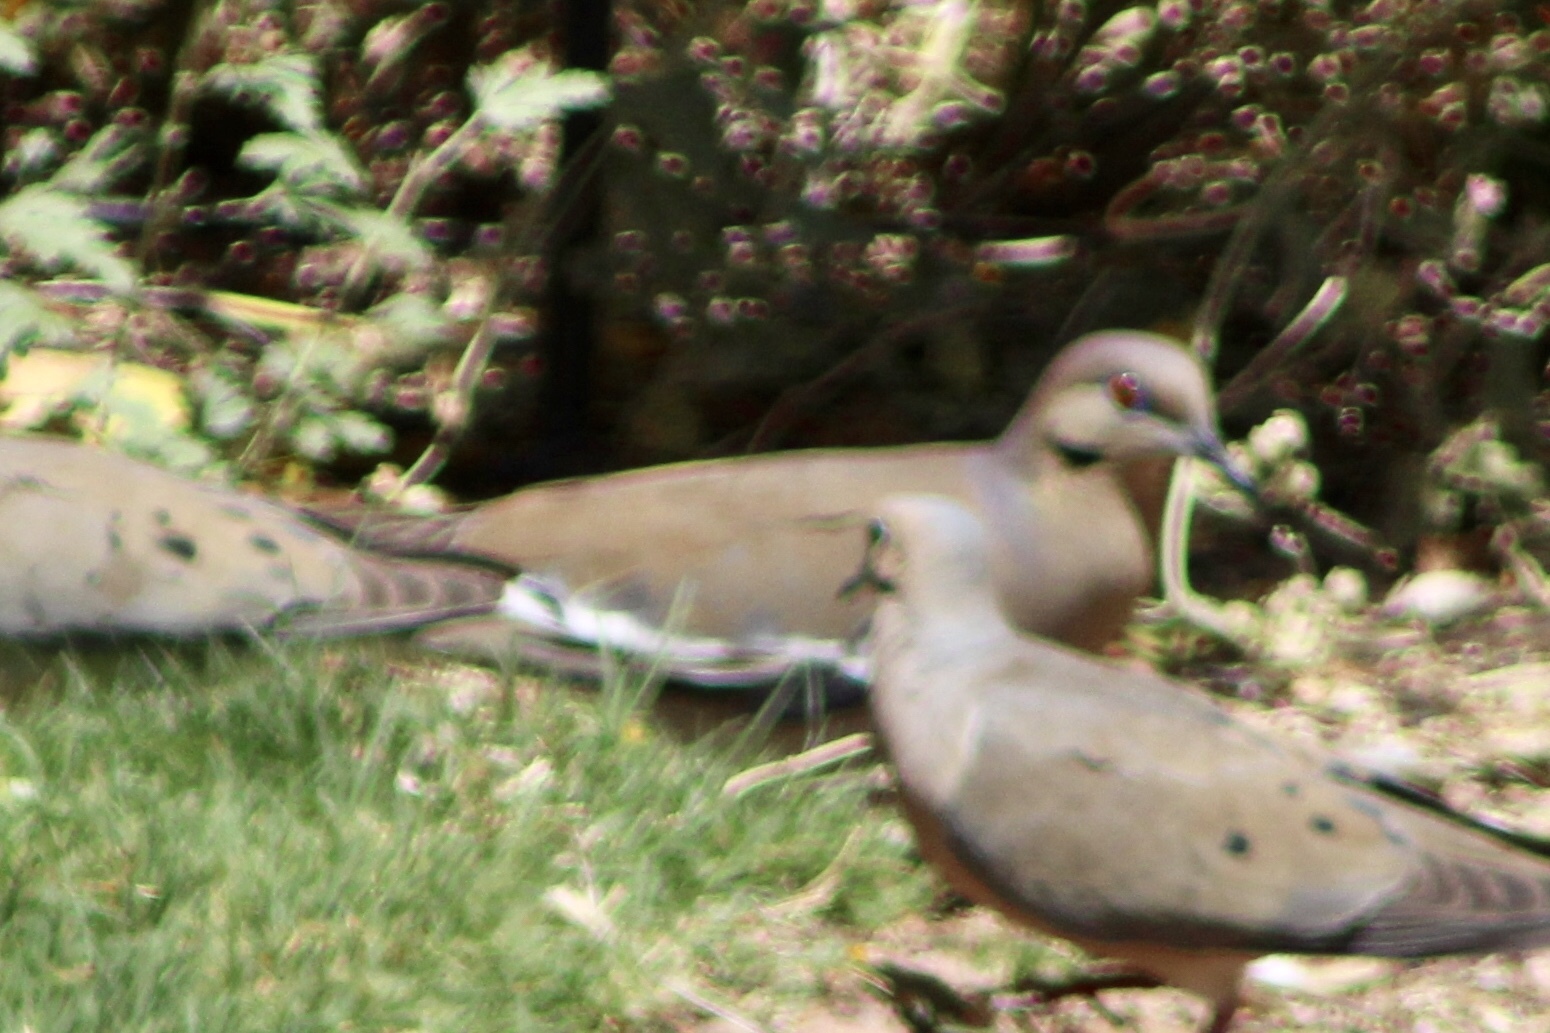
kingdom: Animalia
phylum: Chordata
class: Aves
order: Columbiformes
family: Columbidae
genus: Zenaida
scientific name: Zenaida asiatica
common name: White-winged dove
